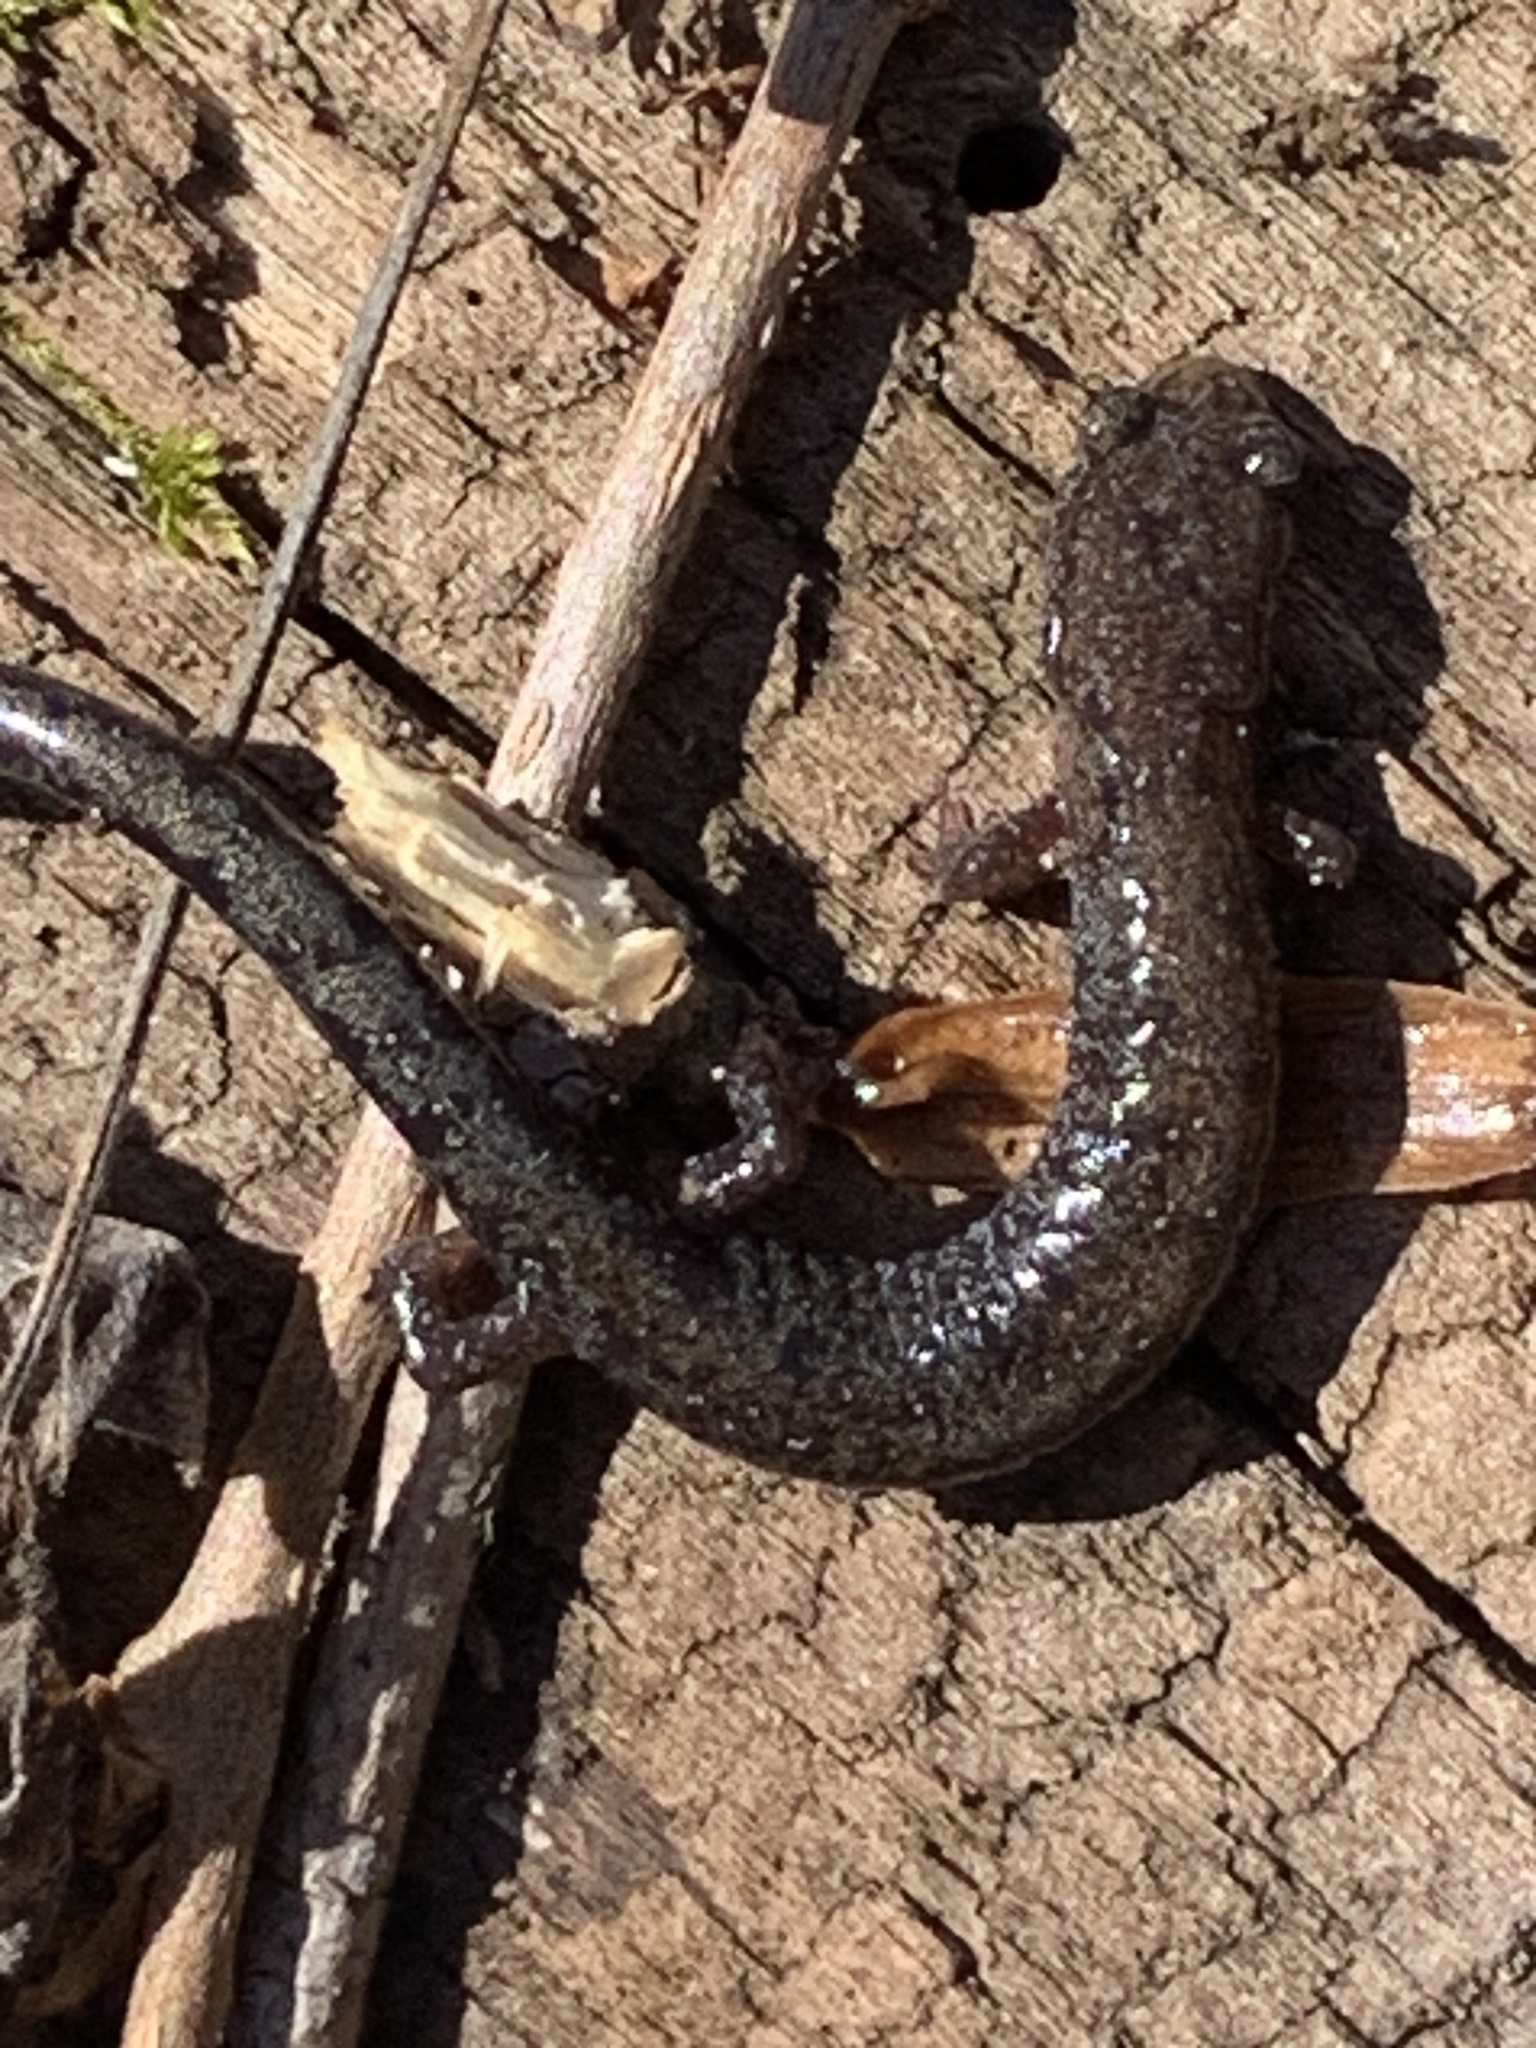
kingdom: Animalia
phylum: Chordata
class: Amphibia
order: Caudata
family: Plethodontidae
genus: Plethodon
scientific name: Plethodon dorsalis
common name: Northern zigzag salamander
